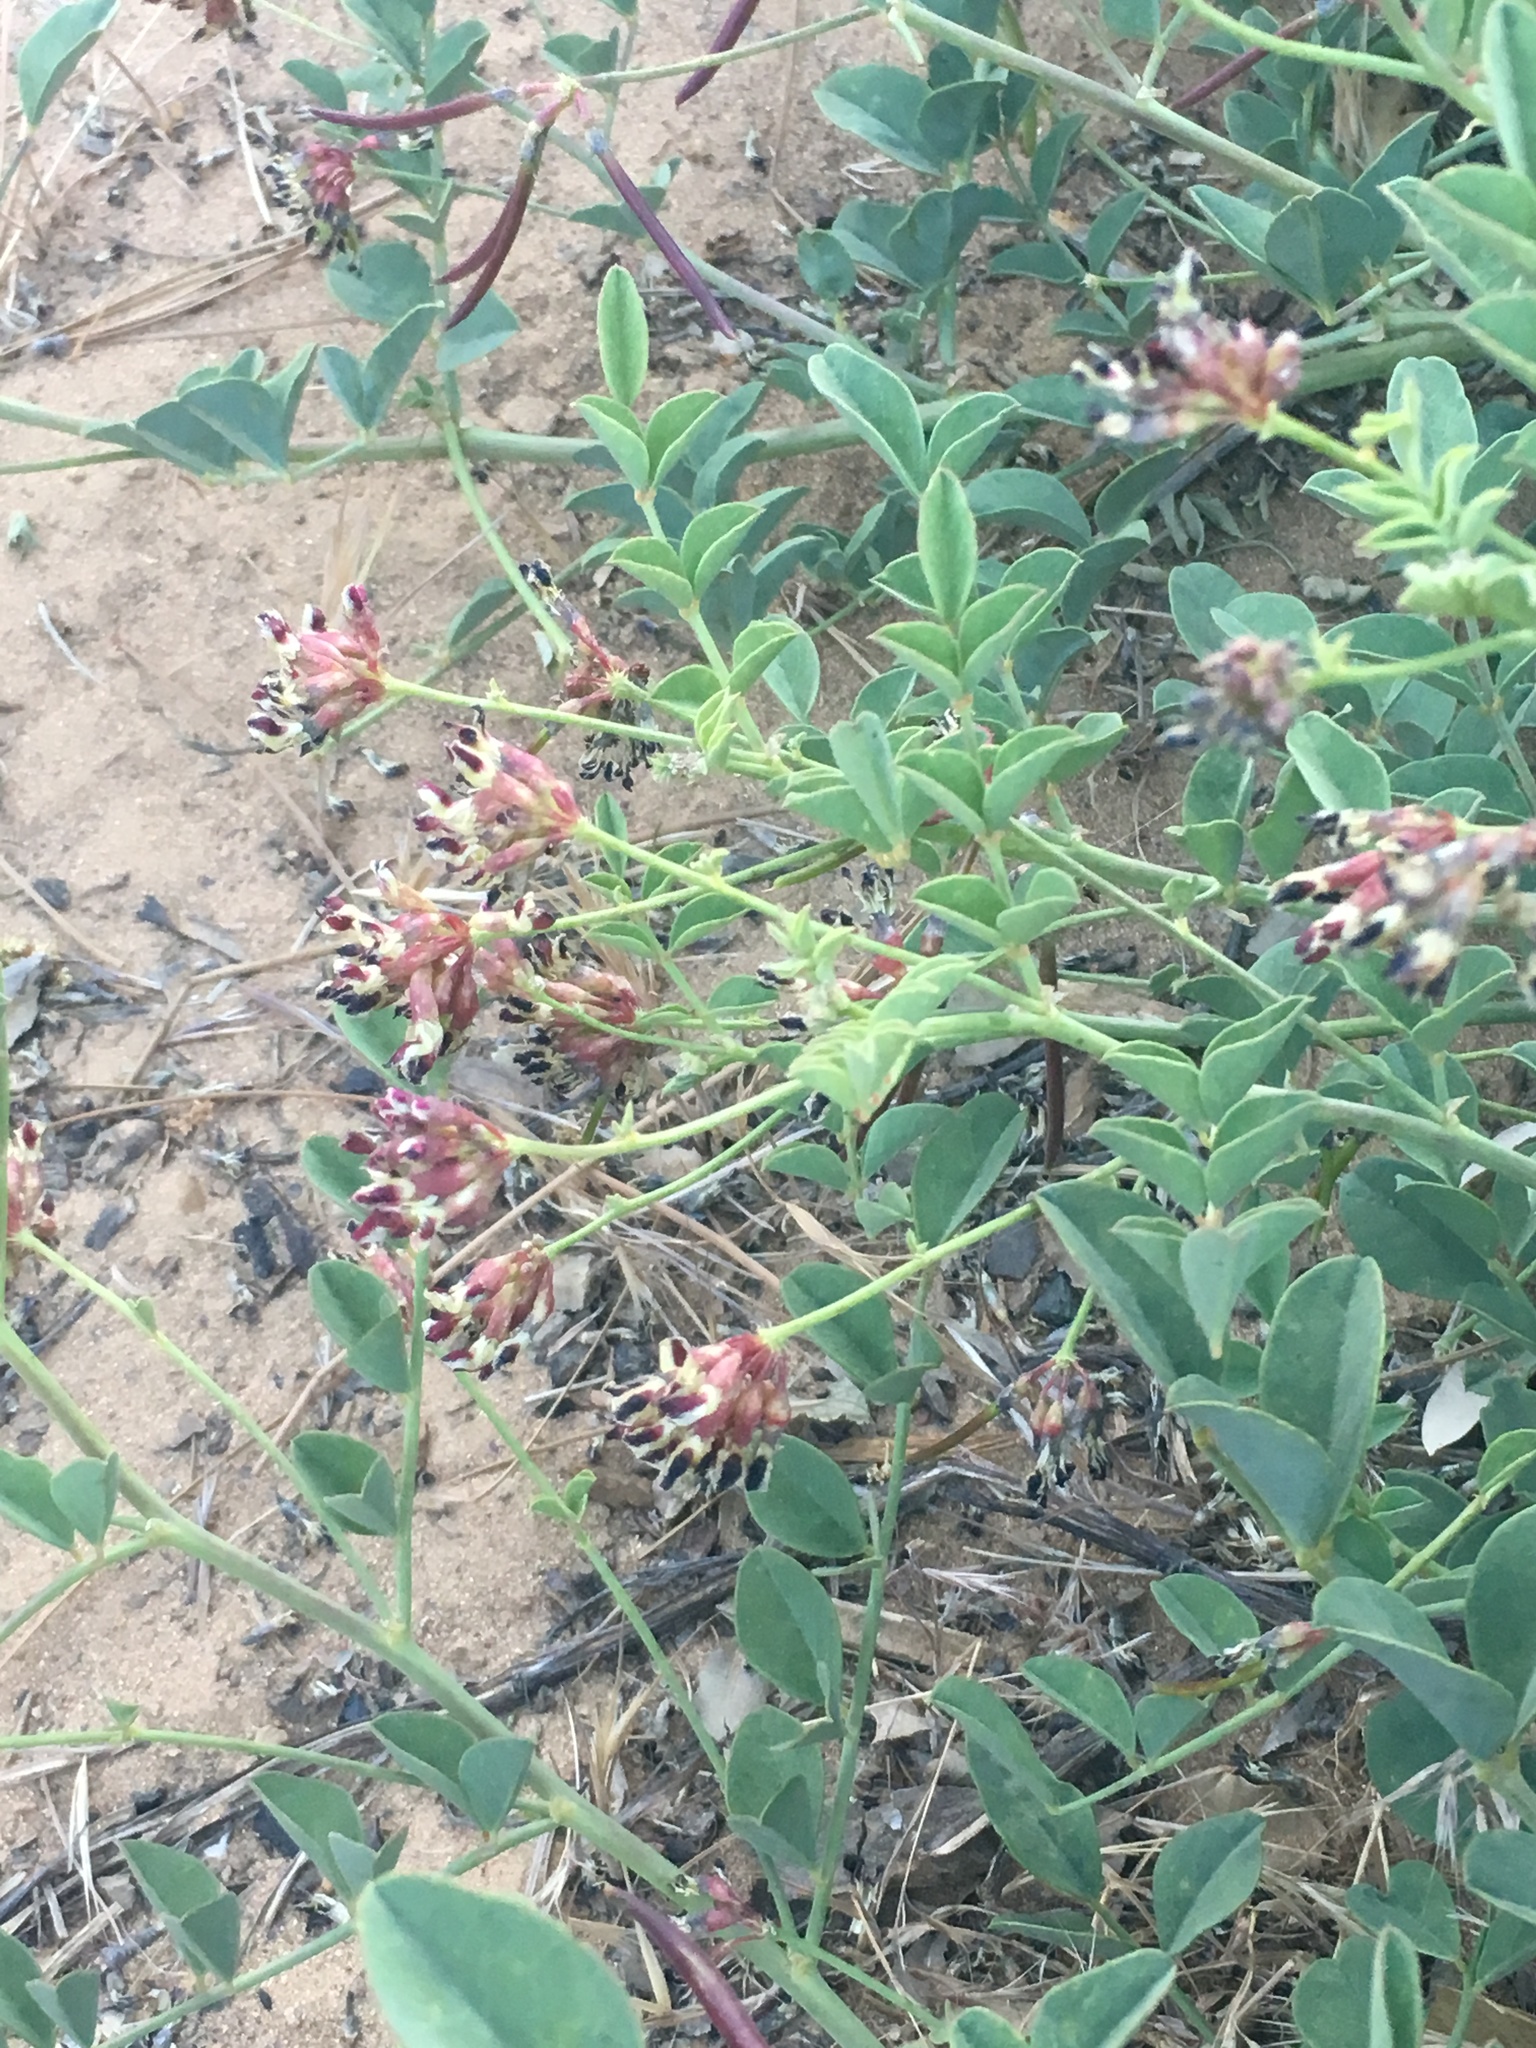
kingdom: Plantae
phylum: Tracheophyta
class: Magnoliopsida
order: Fabales
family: Fabaceae
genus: Hosackia
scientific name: Hosackia crassifolia
